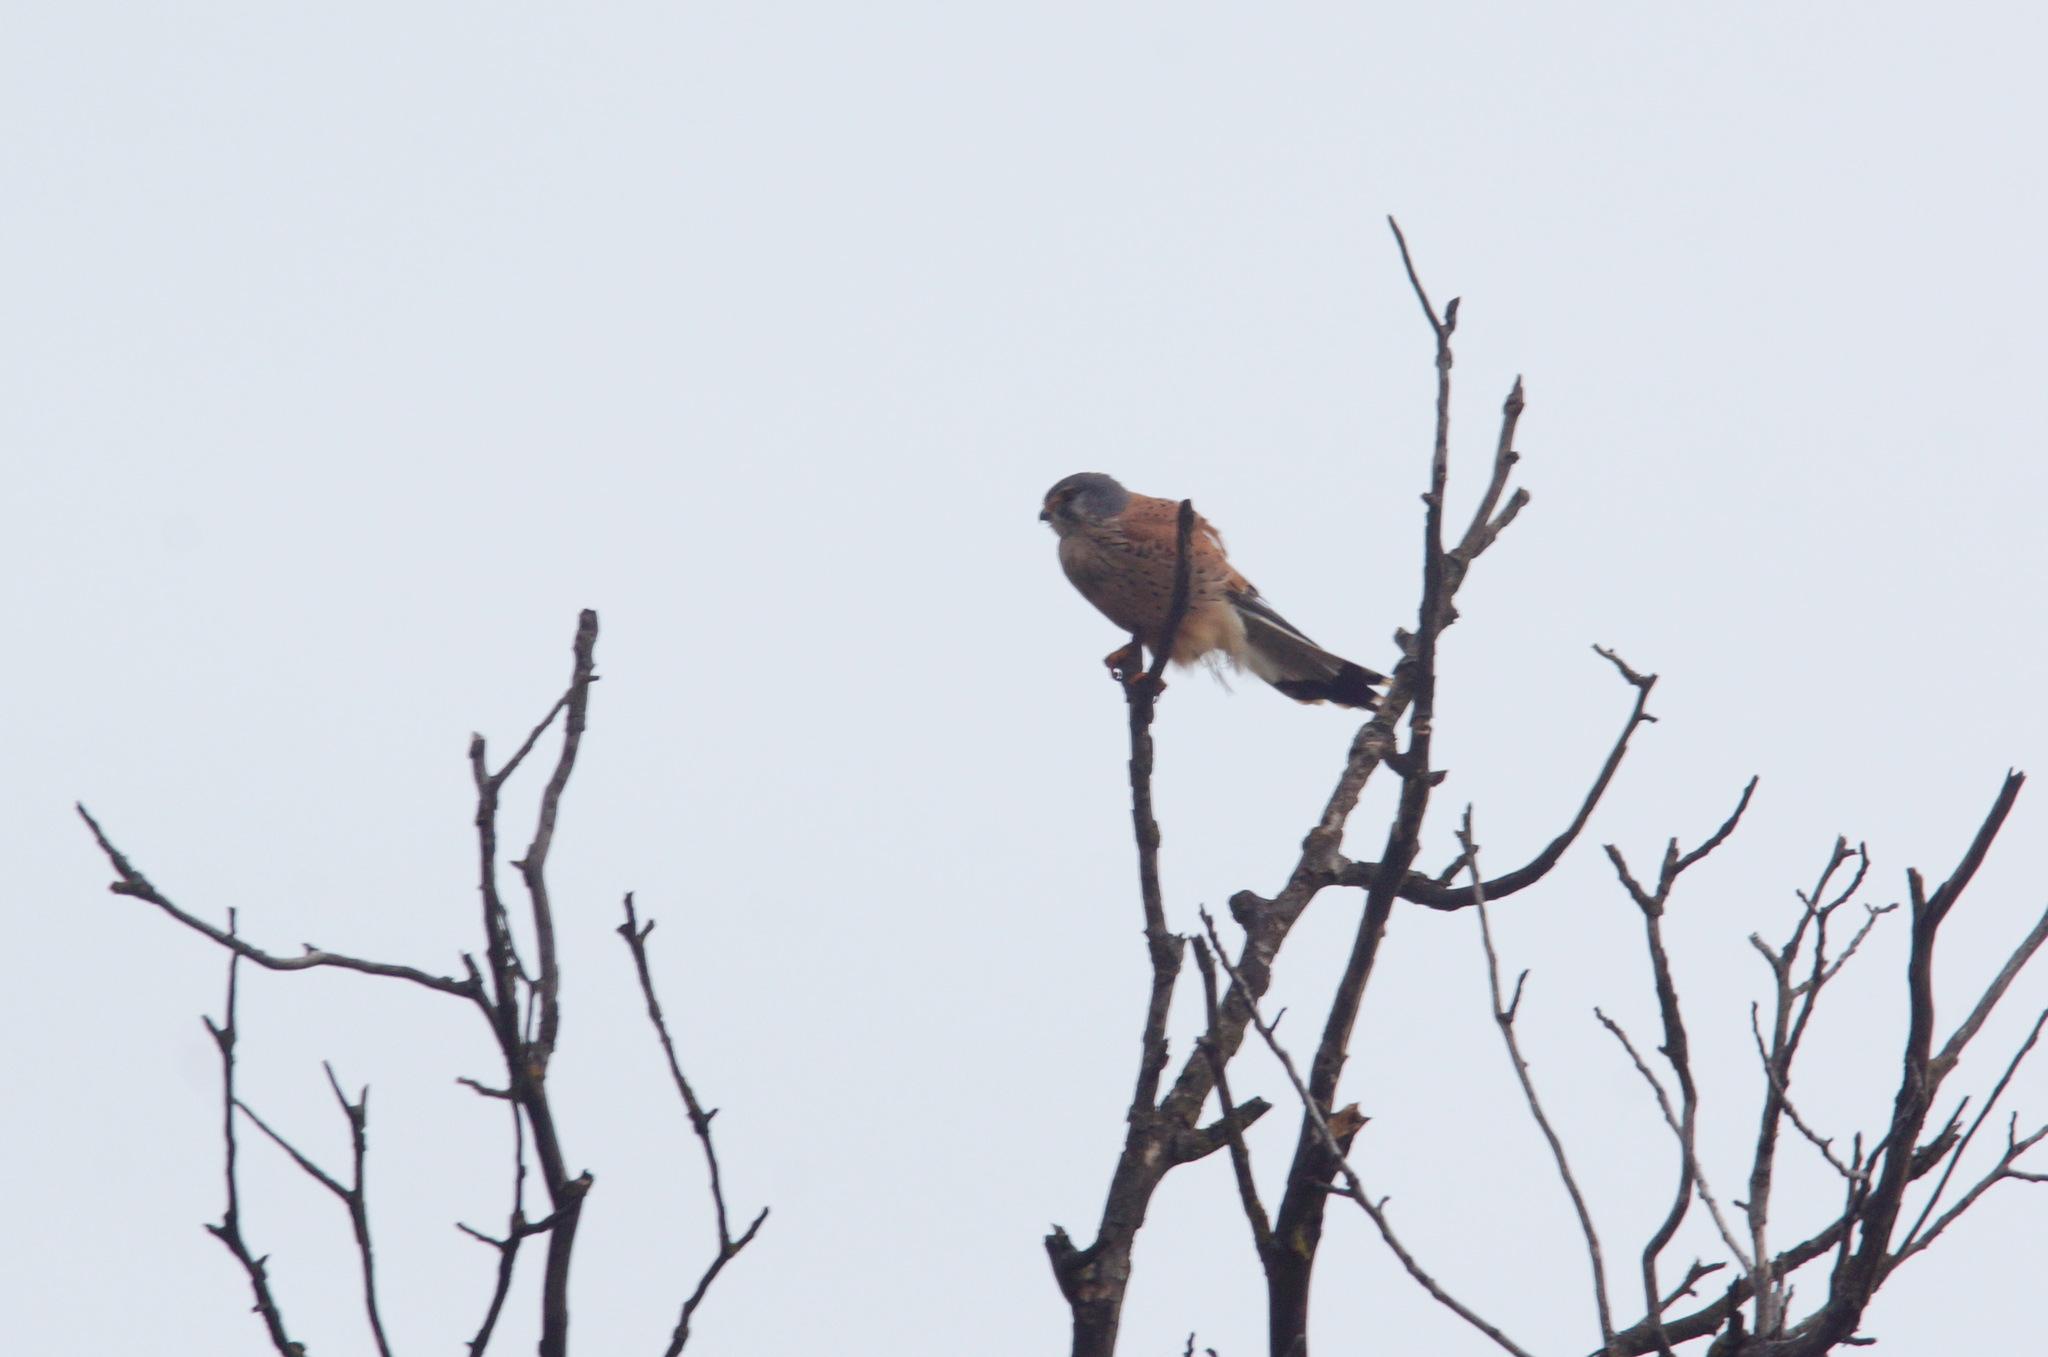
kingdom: Animalia
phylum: Chordata
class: Aves
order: Falconiformes
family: Falconidae
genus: Falco
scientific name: Falco tinnunculus
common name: Common kestrel
